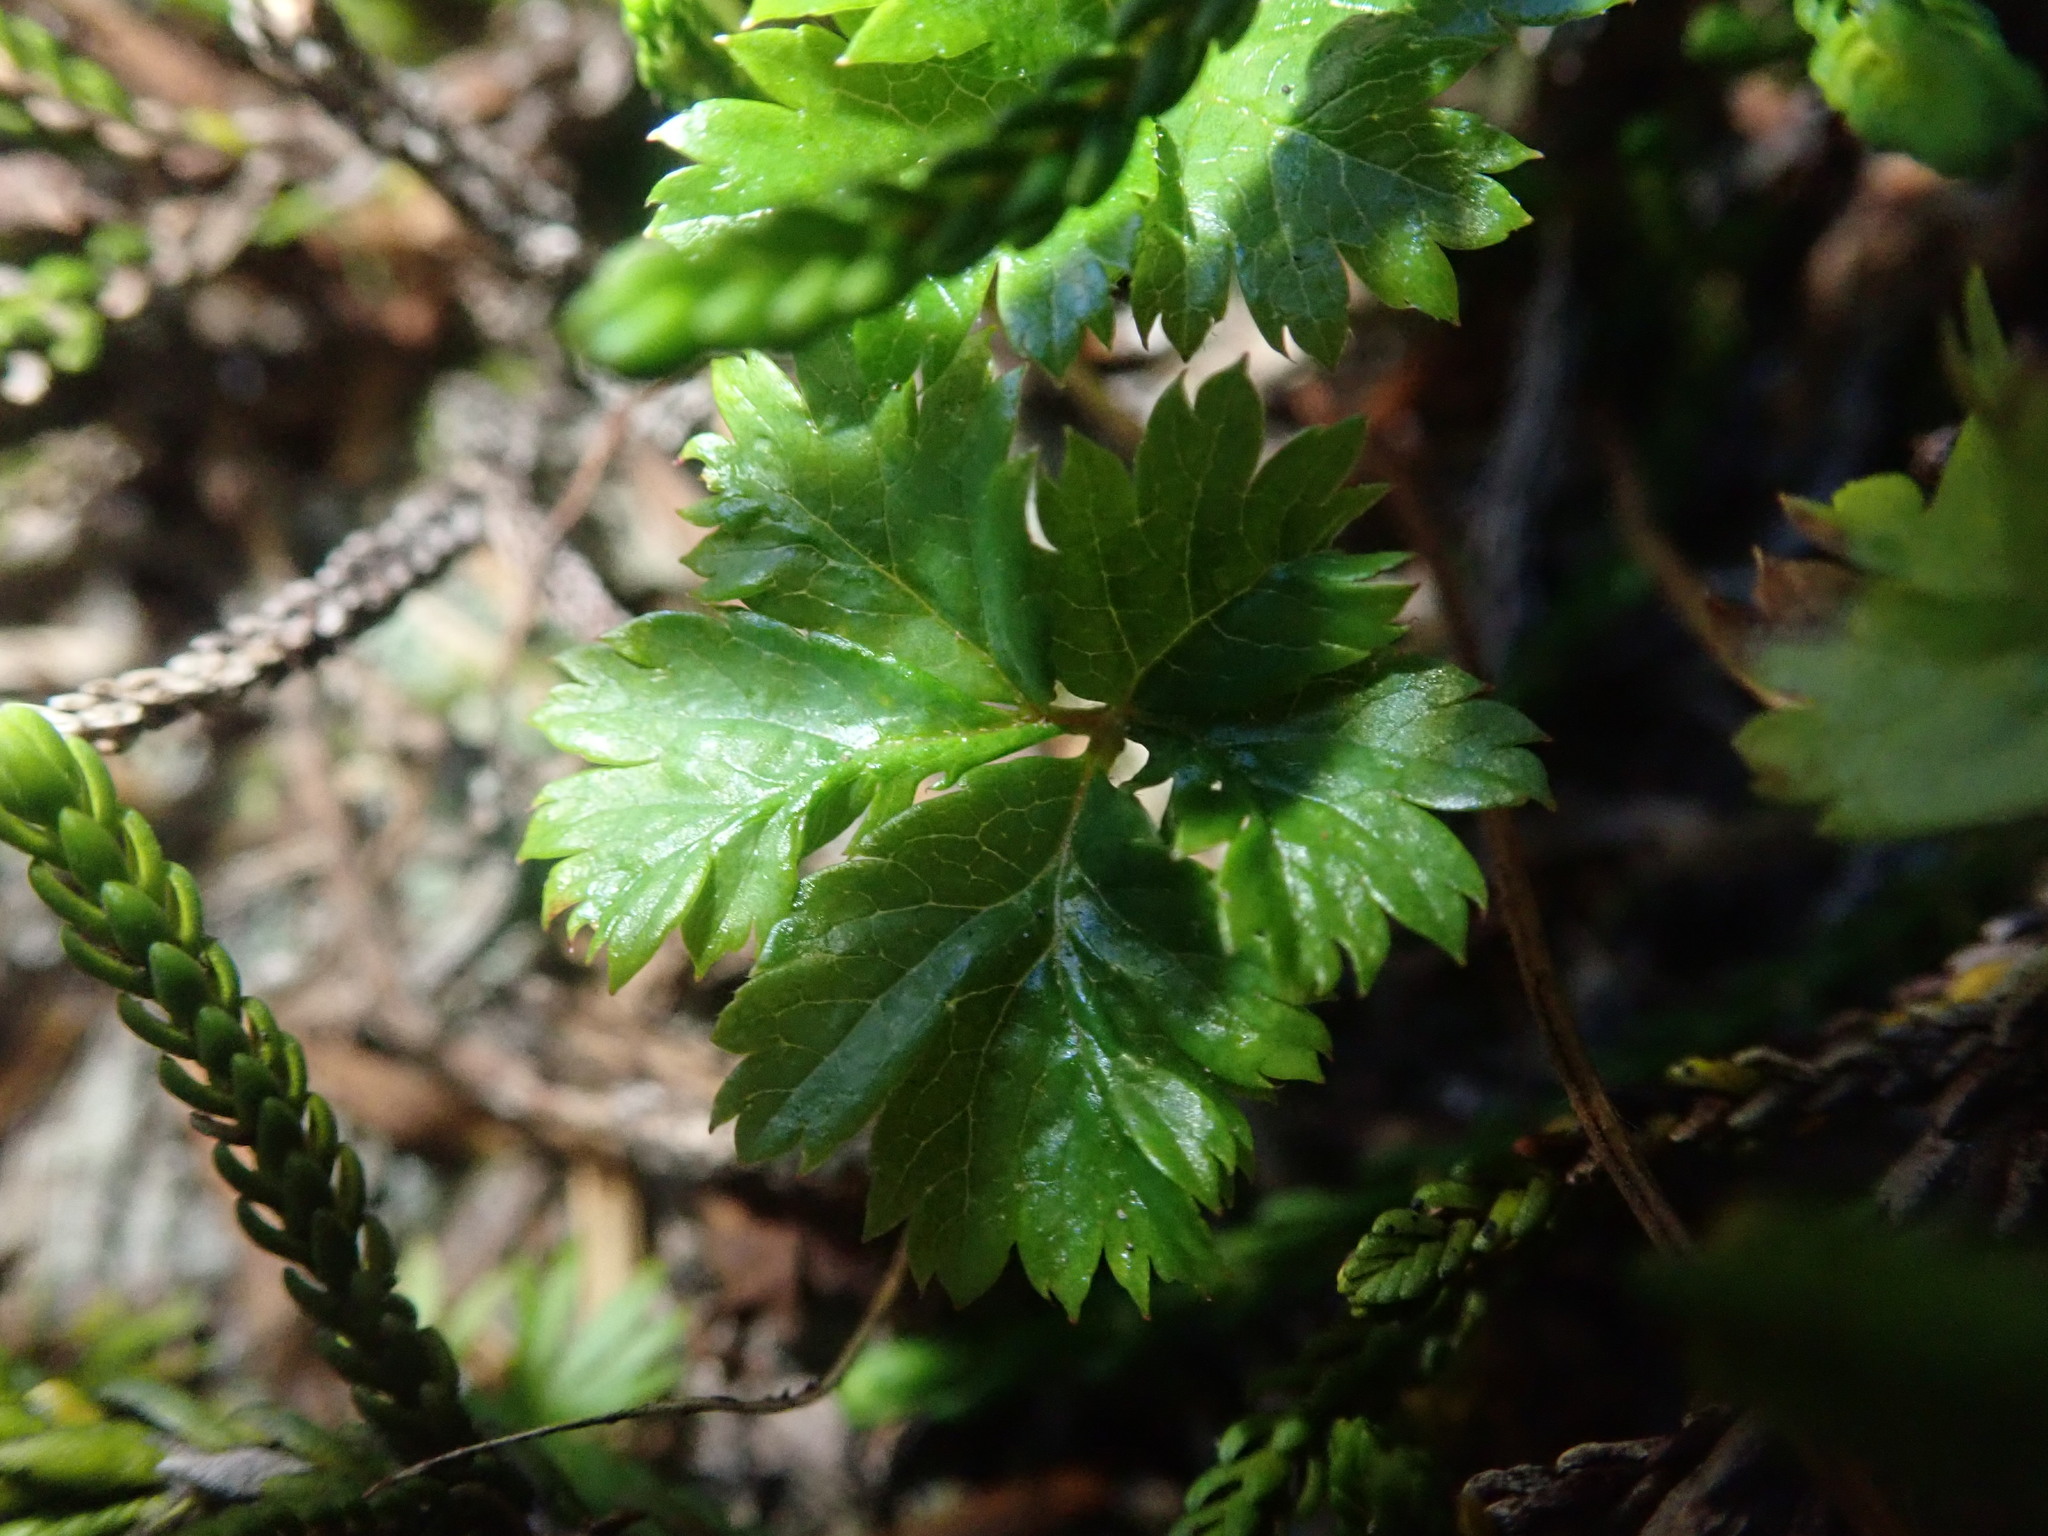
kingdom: Plantae
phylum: Tracheophyta
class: Magnoliopsida
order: Rosales
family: Rosaceae
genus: Rubus
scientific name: Rubus pedatus
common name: Creeping raspberry
